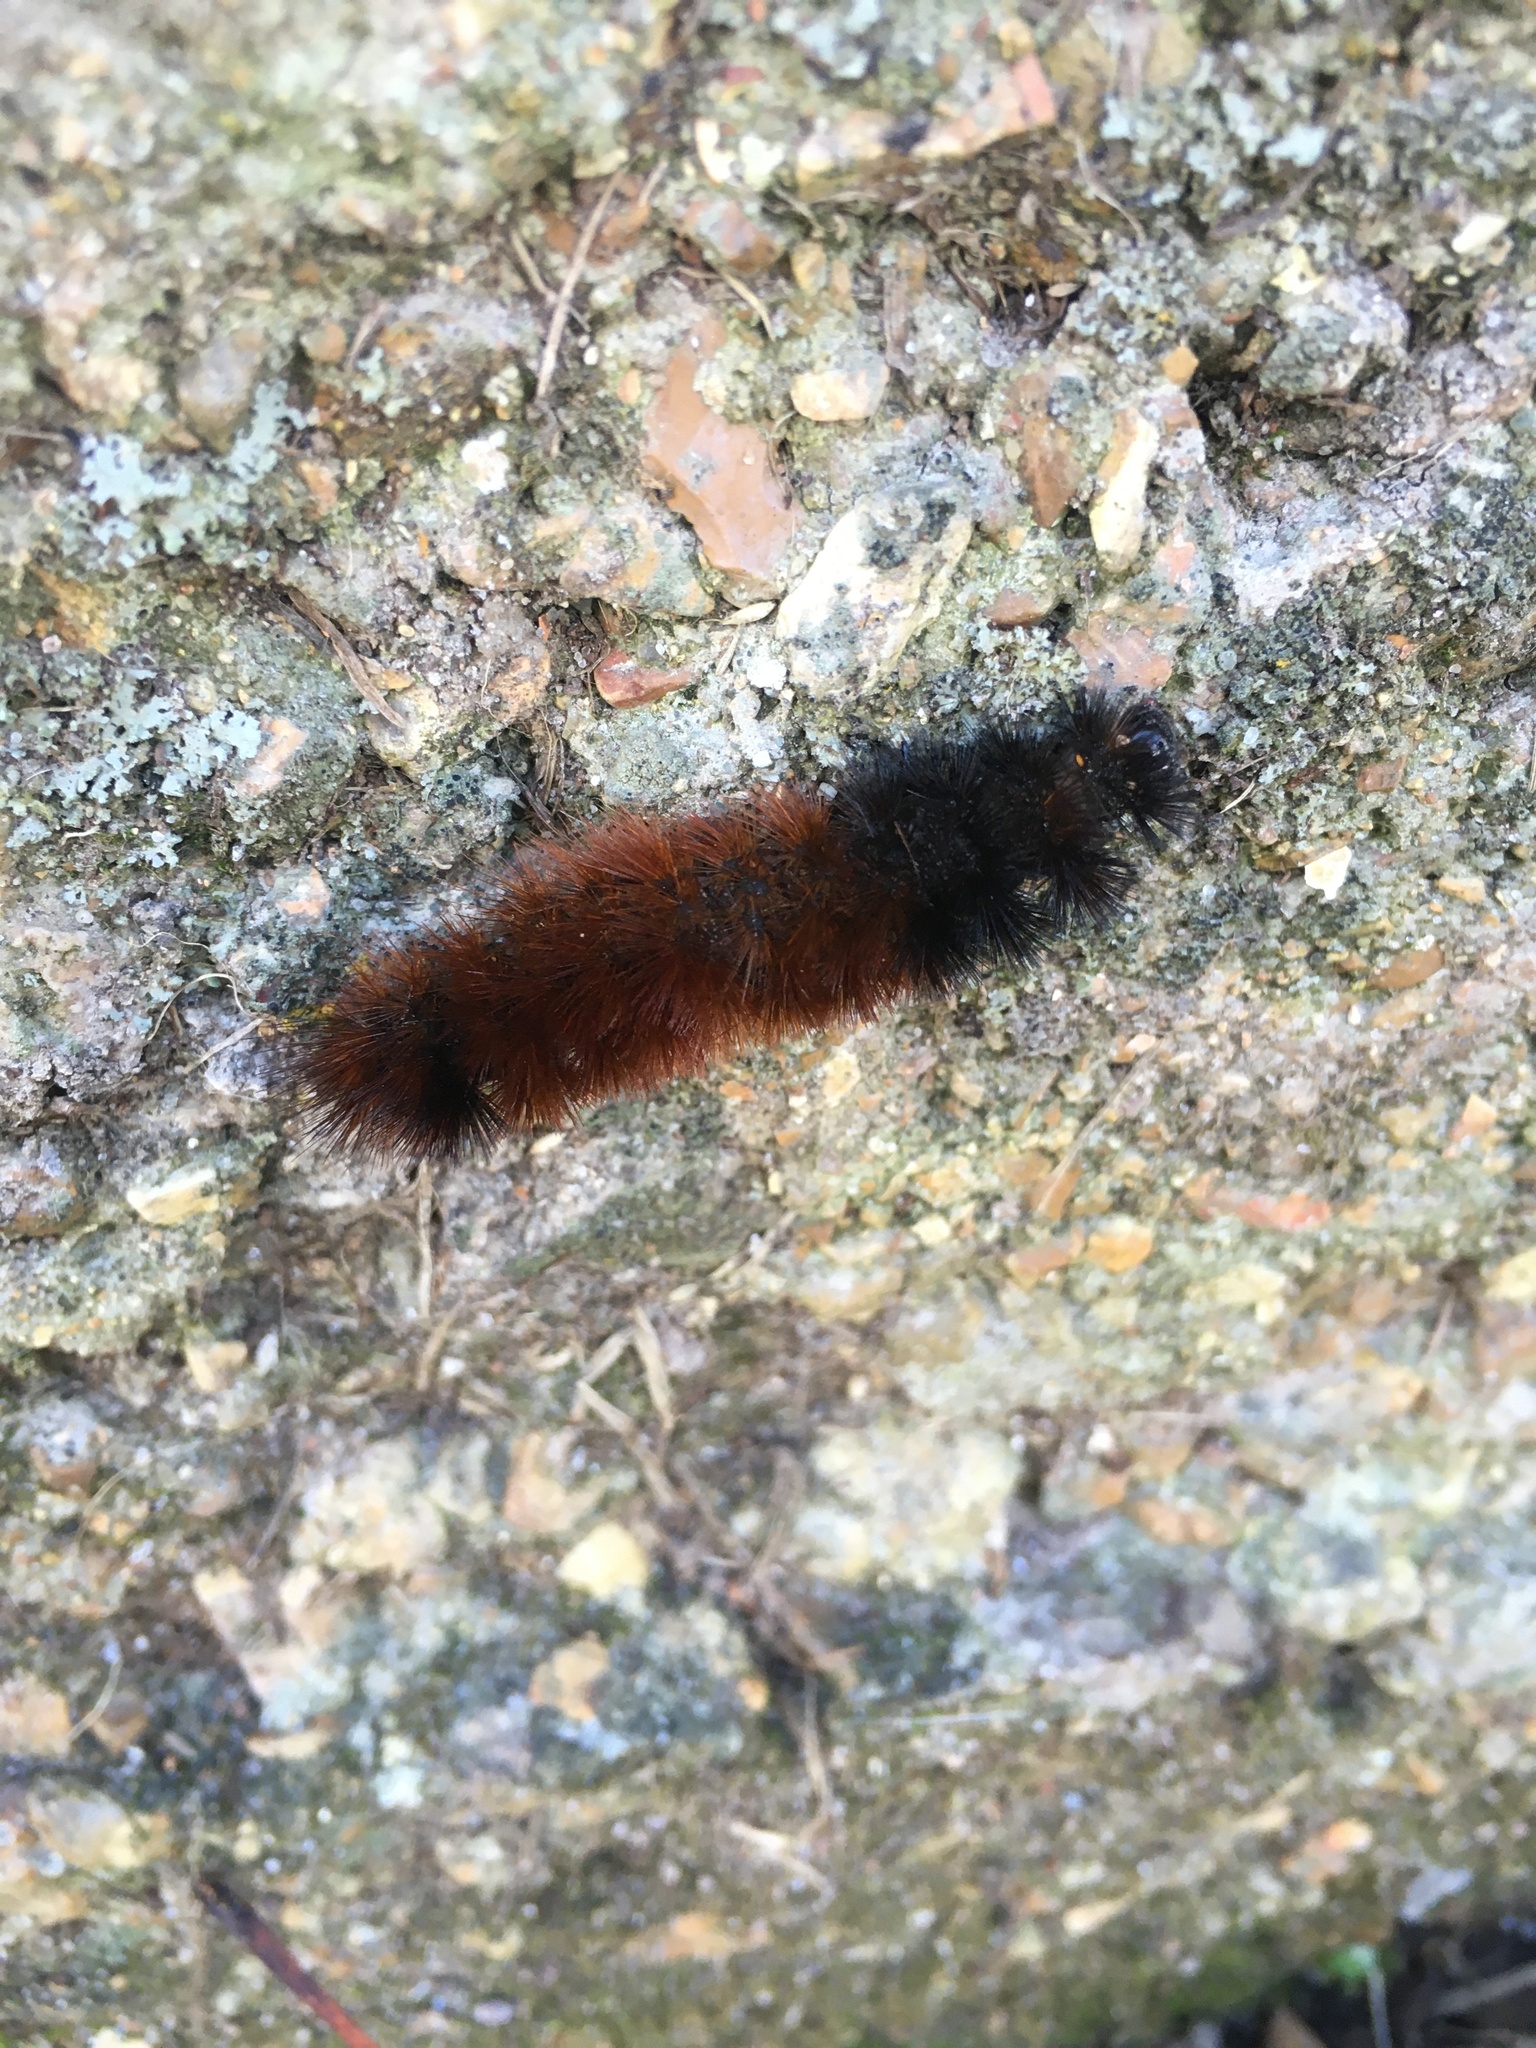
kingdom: Animalia
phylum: Arthropoda
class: Insecta
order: Lepidoptera
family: Erebidae
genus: Pyrrharctia
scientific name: Pyrrharctia isabella
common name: Isabella tiger moth
